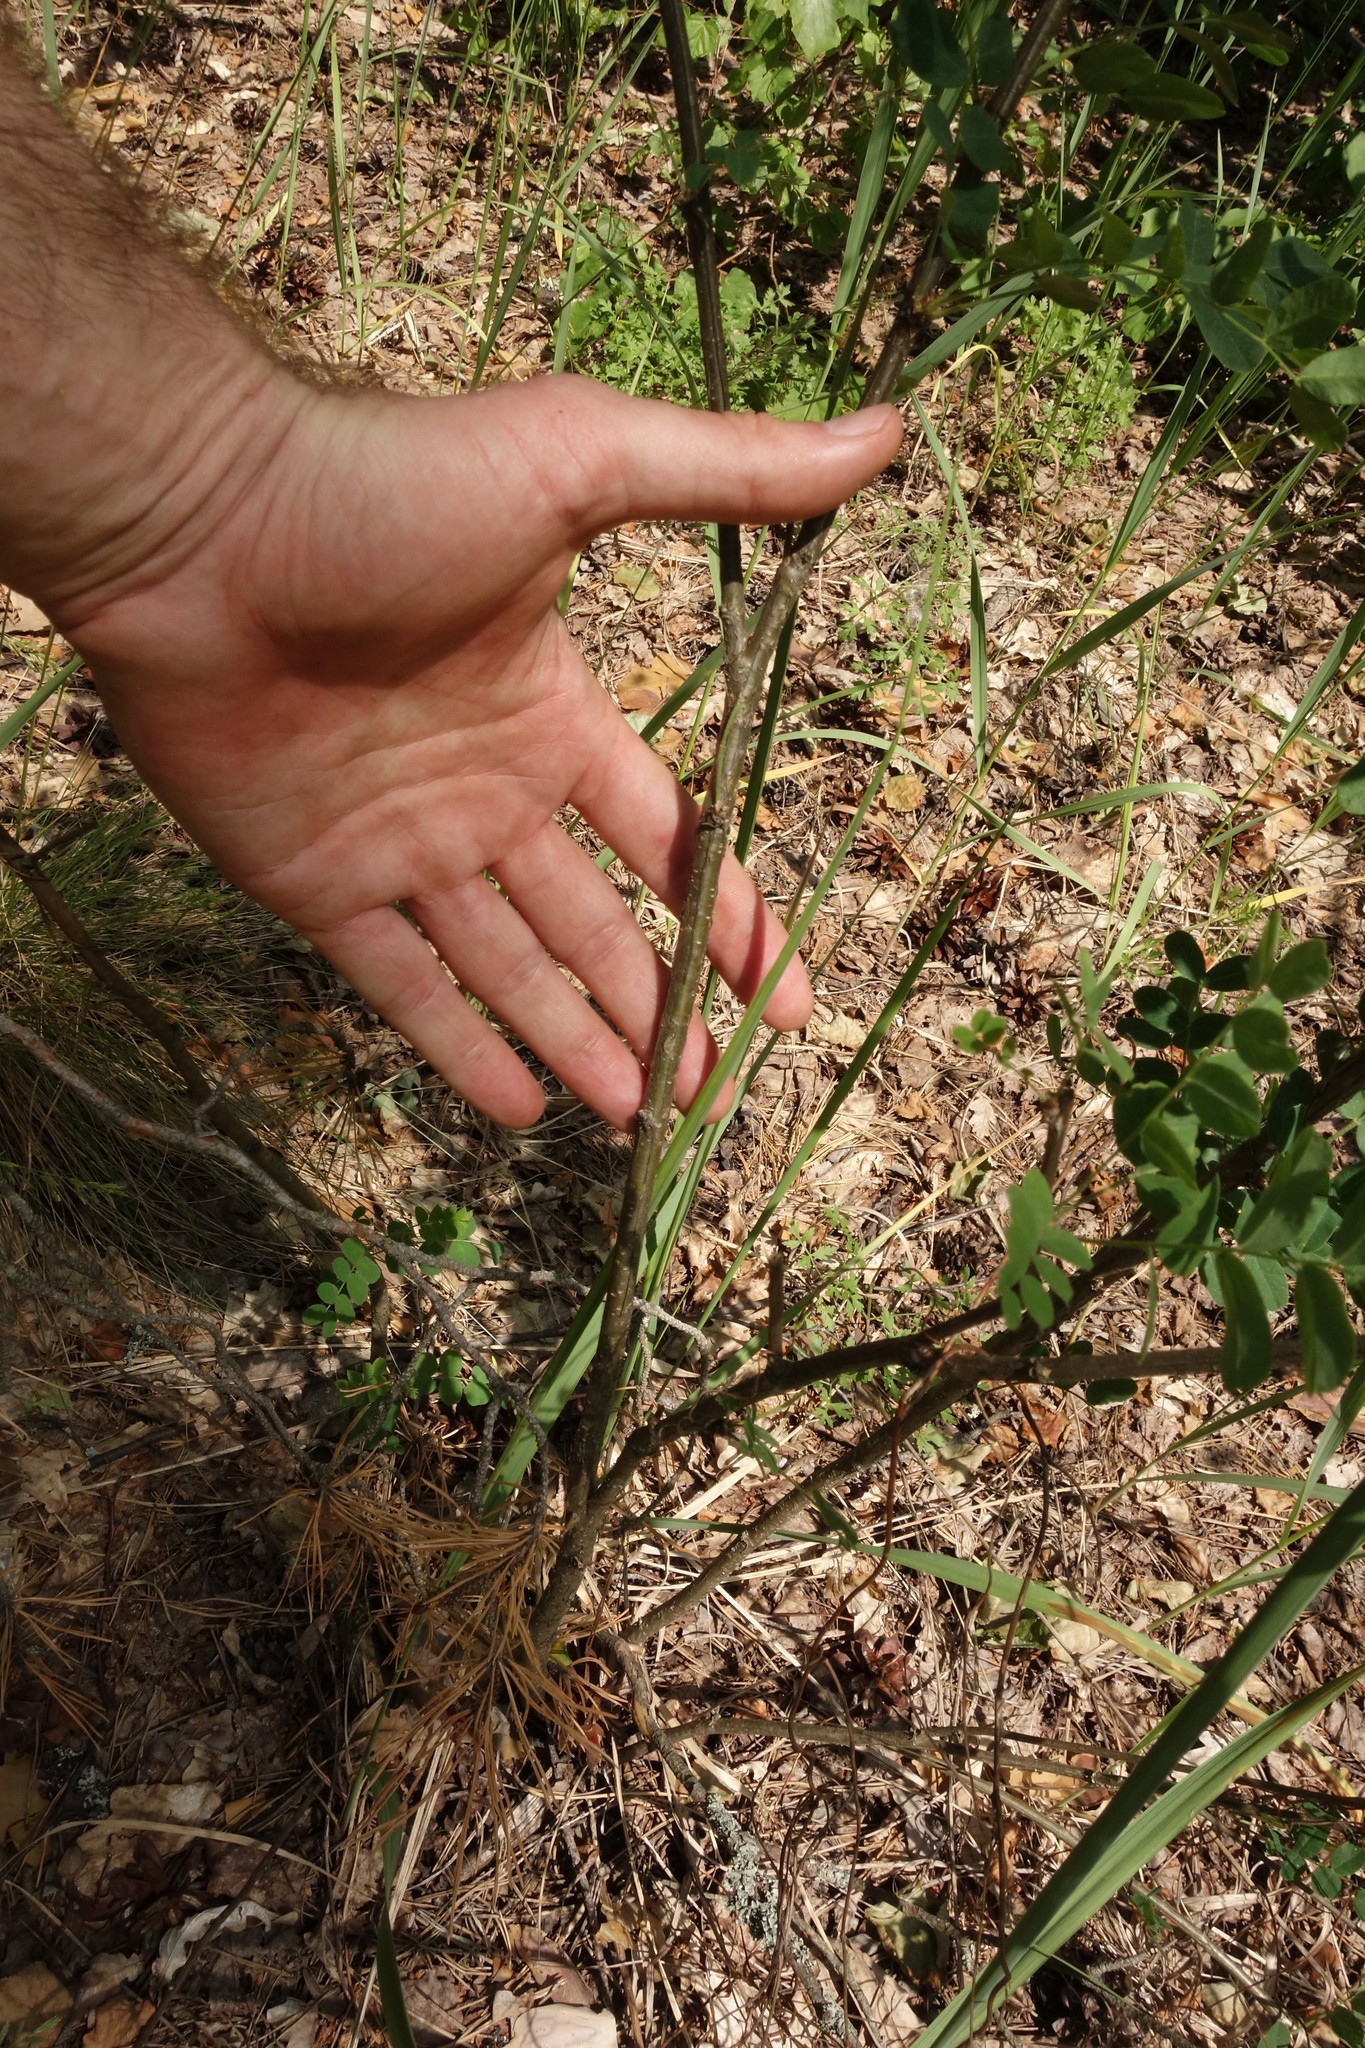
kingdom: Plantae
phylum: Tracheophyta
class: Magnoliopsida
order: Fabales
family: Fabaceae
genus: Caragana
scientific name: Caragana arborescens
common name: Siberian peashrub
